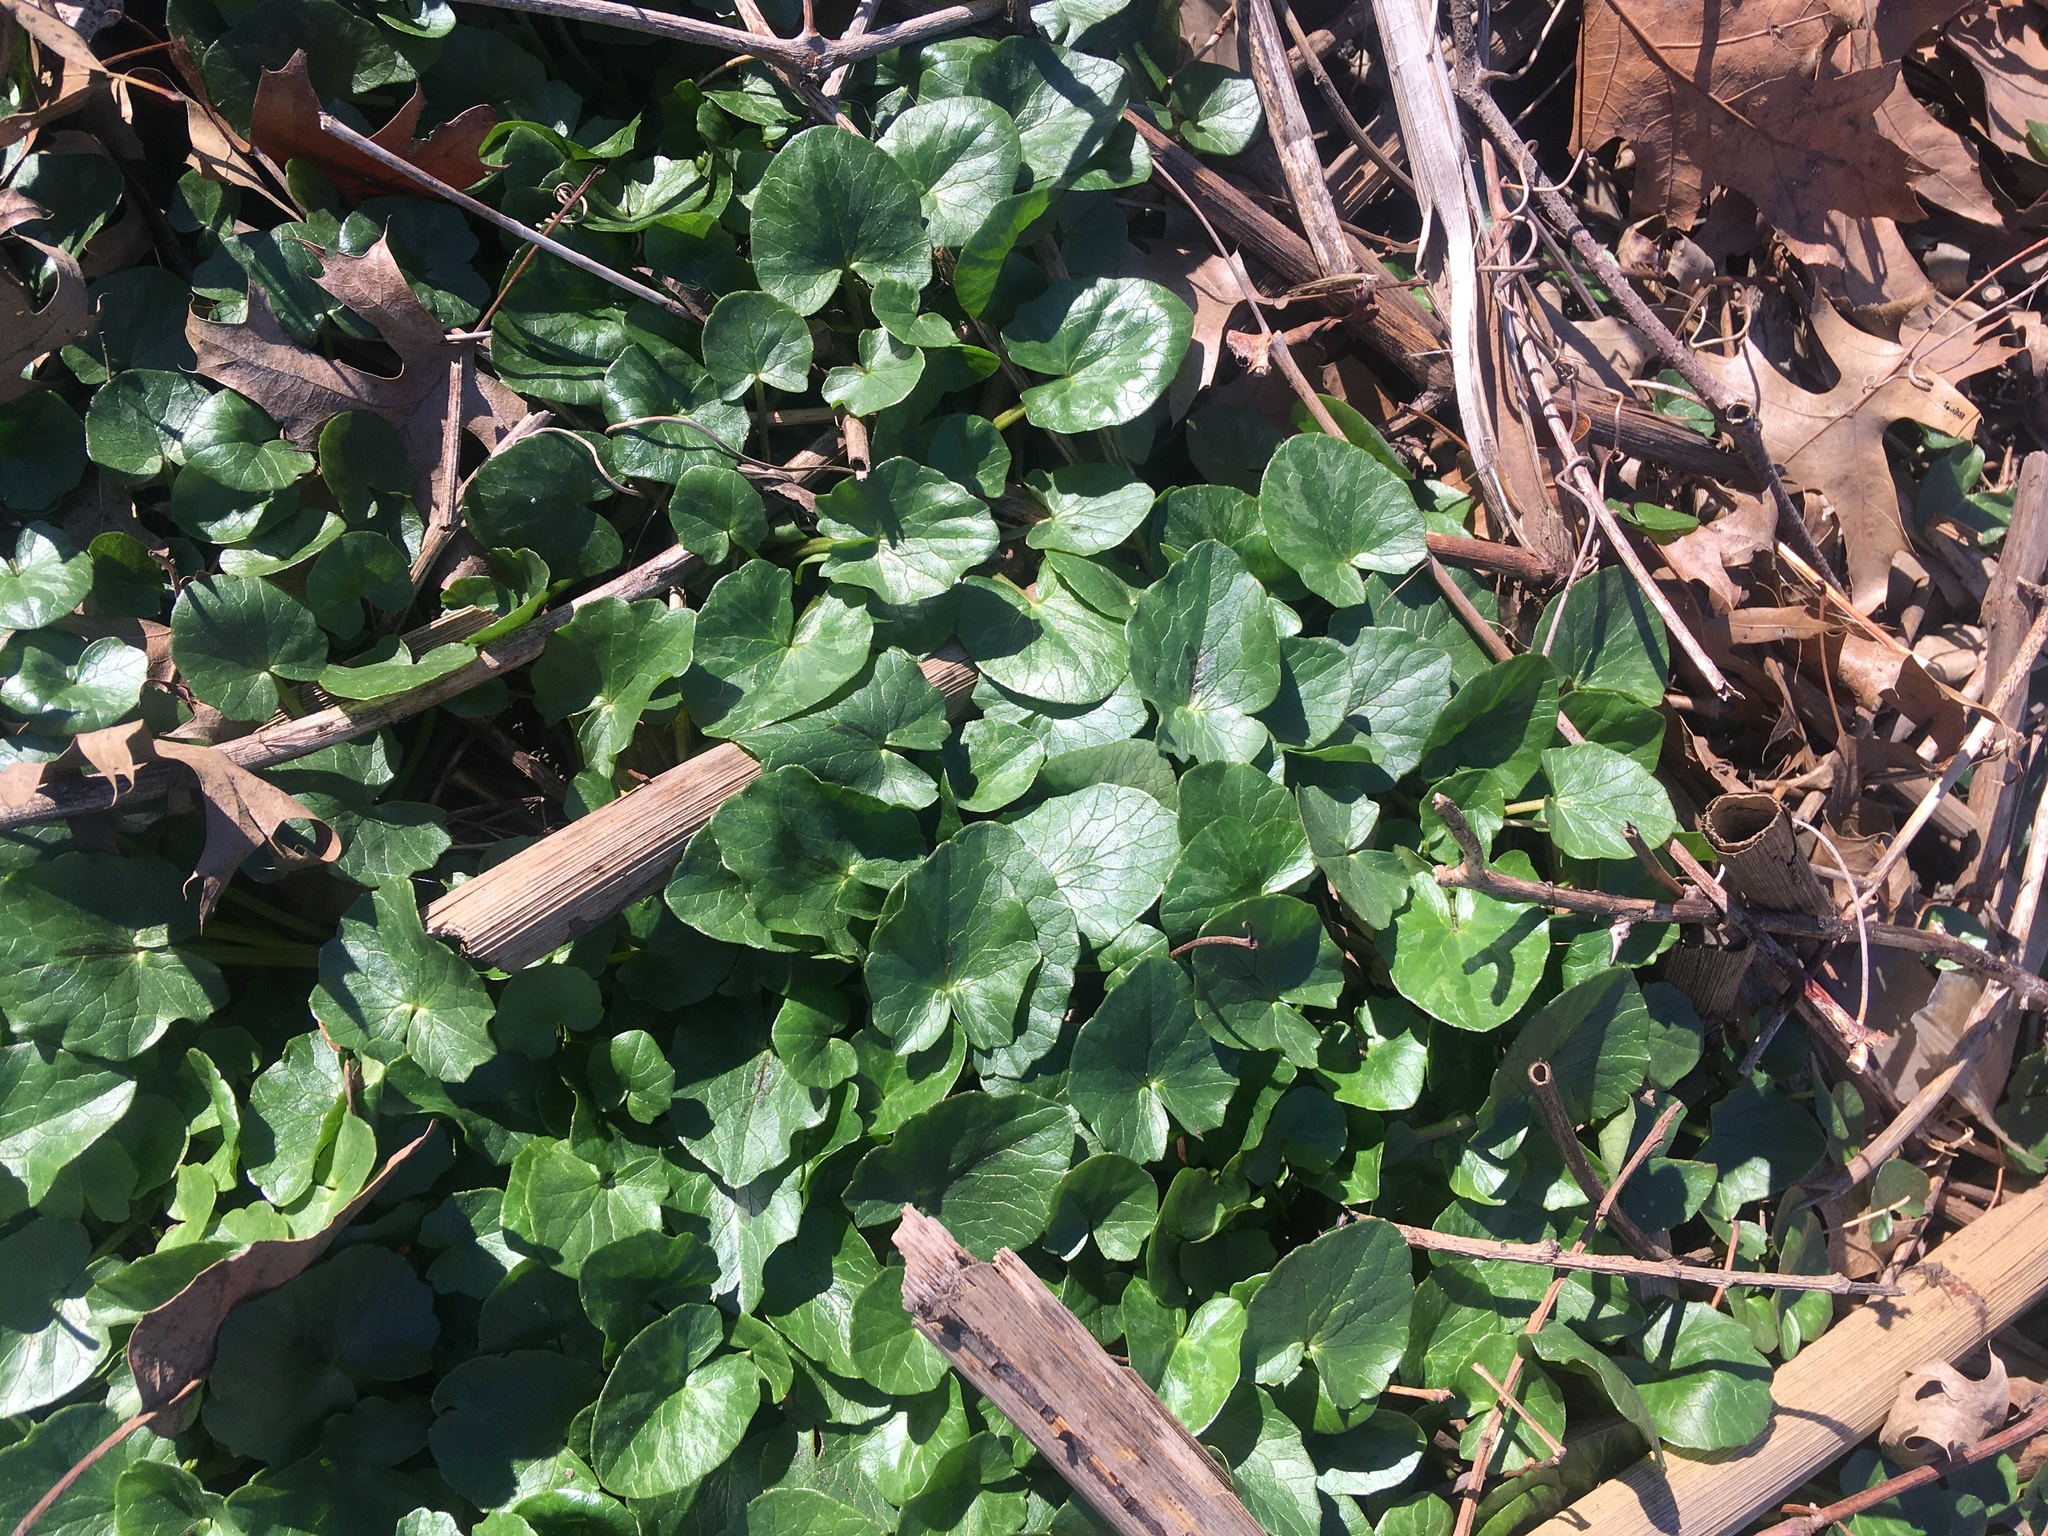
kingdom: Plantae
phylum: Tracheophyta
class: Magnoliopsida
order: Ranunculales
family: Ranunculaceae
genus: Ficaria
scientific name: Ficaria verna
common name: Lesser celandine
